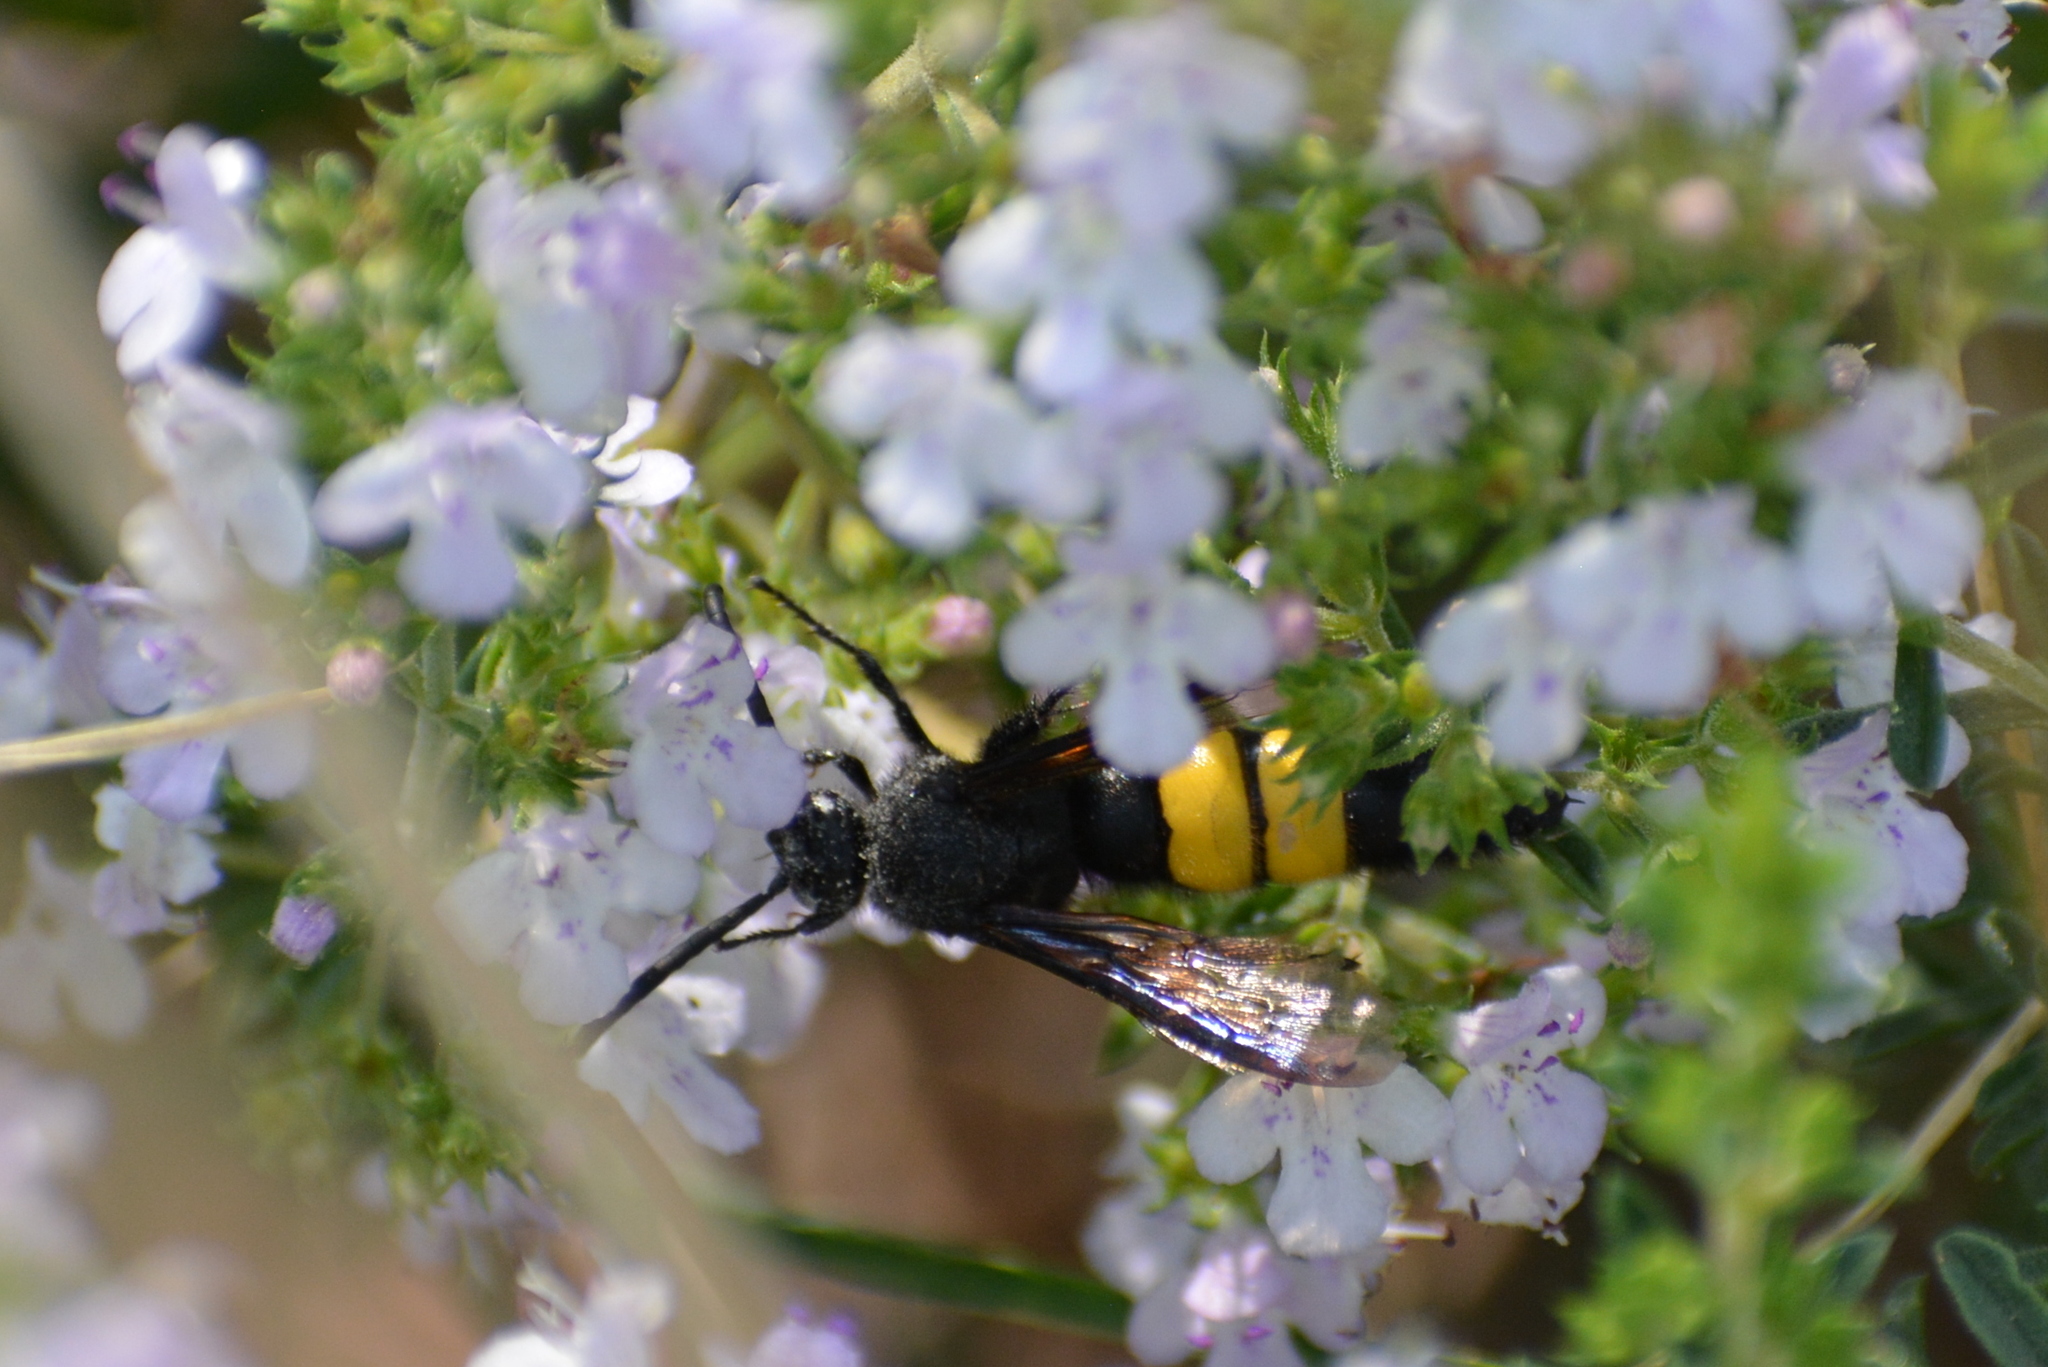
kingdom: Animalia
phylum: Arthropoda
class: Insecta
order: Hymenoptera
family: Scoliidae
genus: Scolia
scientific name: Scolia hirta
